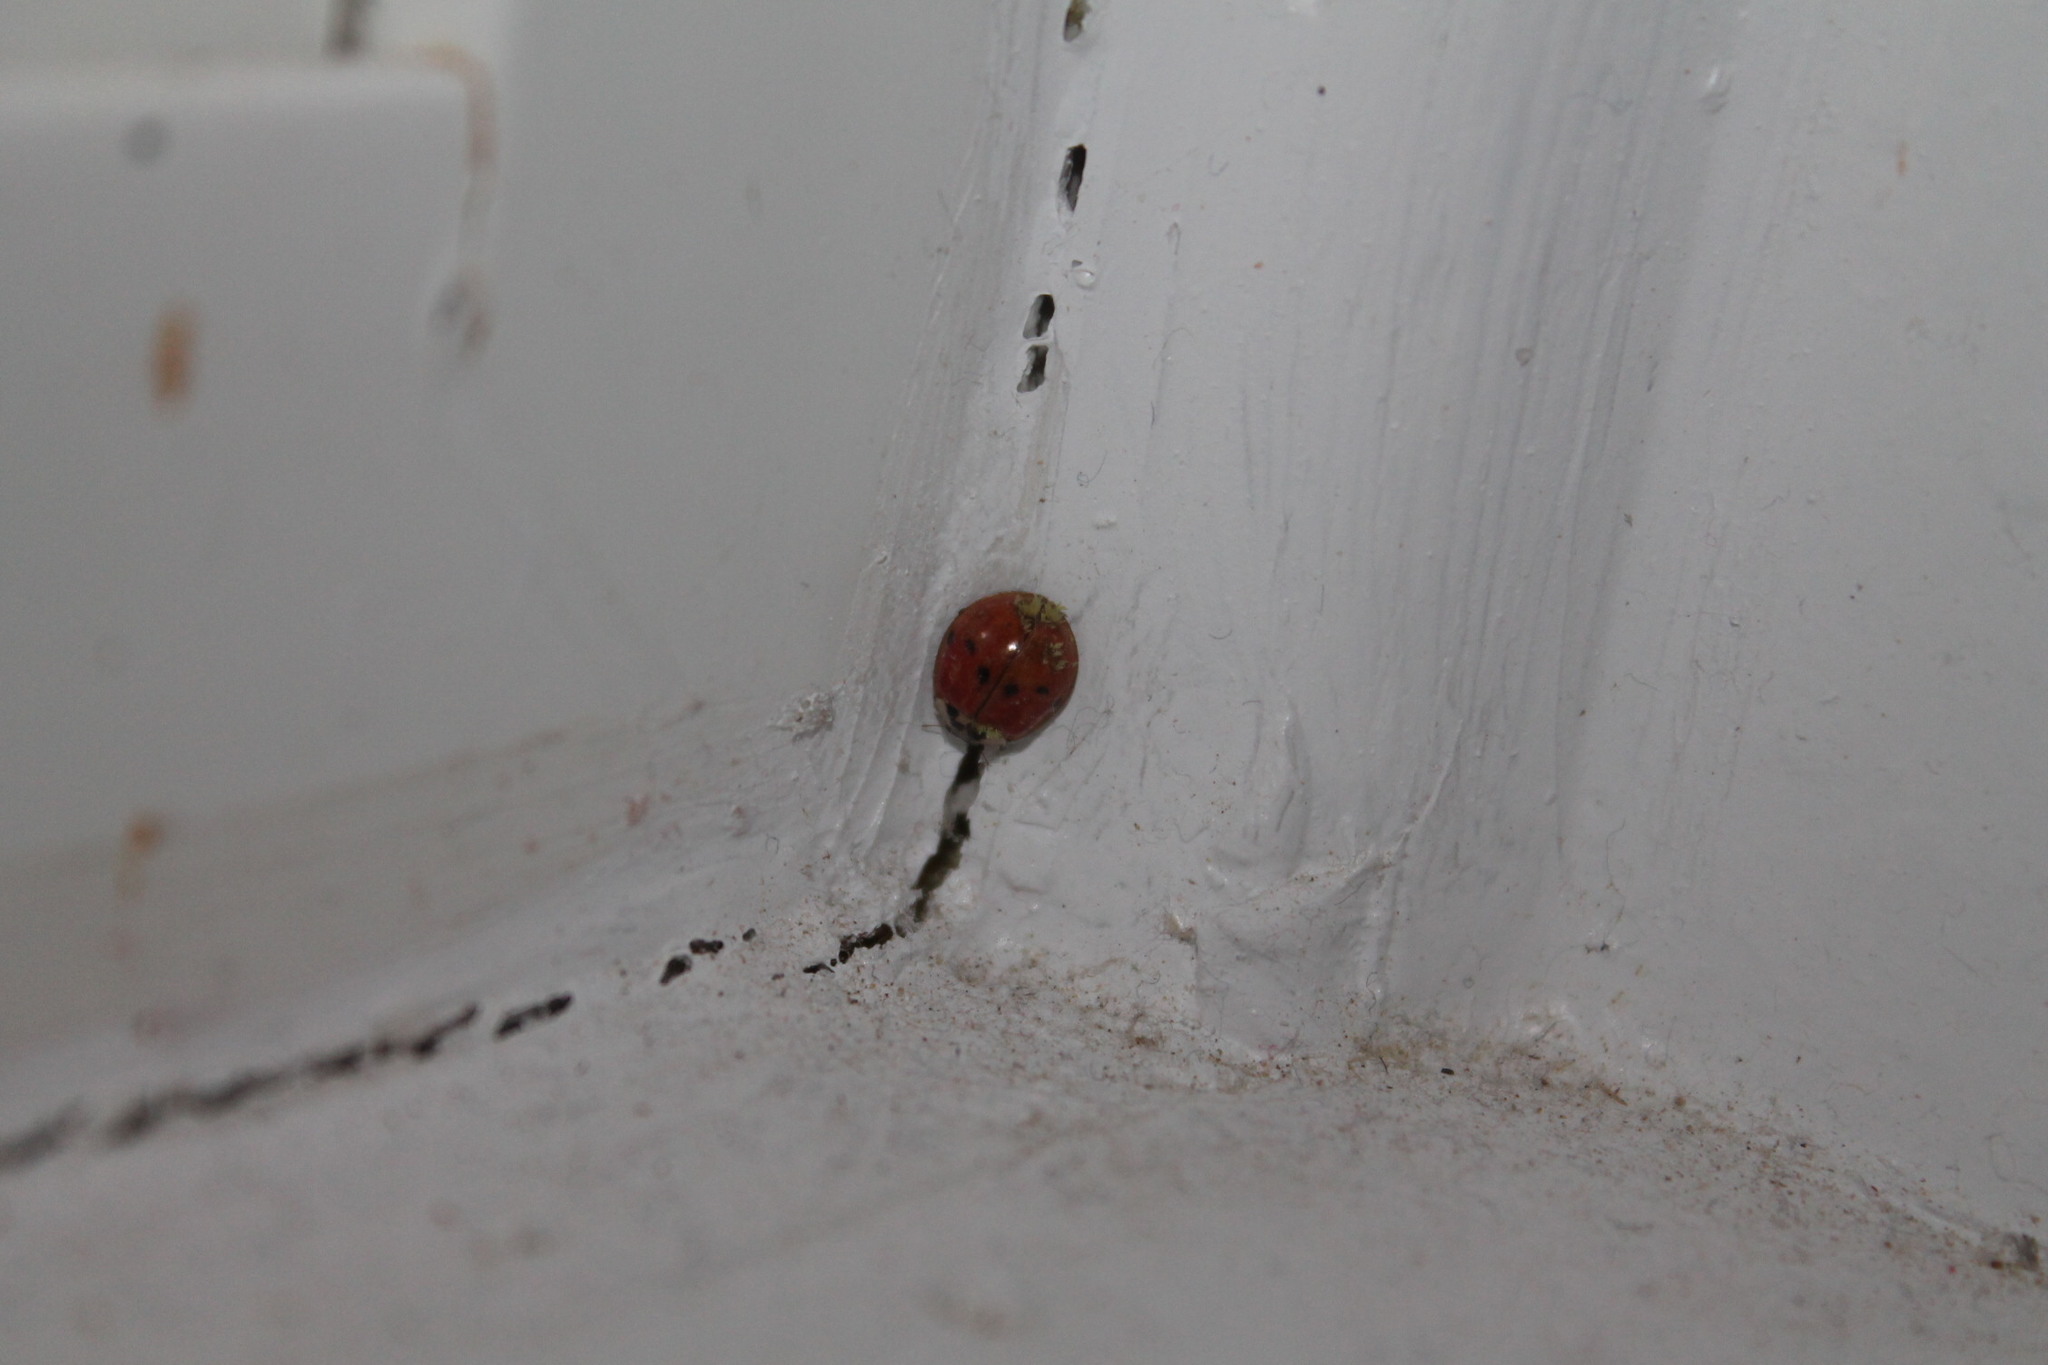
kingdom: Animalia
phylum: Arthropoda
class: Insecta
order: Coleoptera
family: Coccinellidae
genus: Harmonia
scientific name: Harmonia axyridis
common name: Harlequin ladybird
